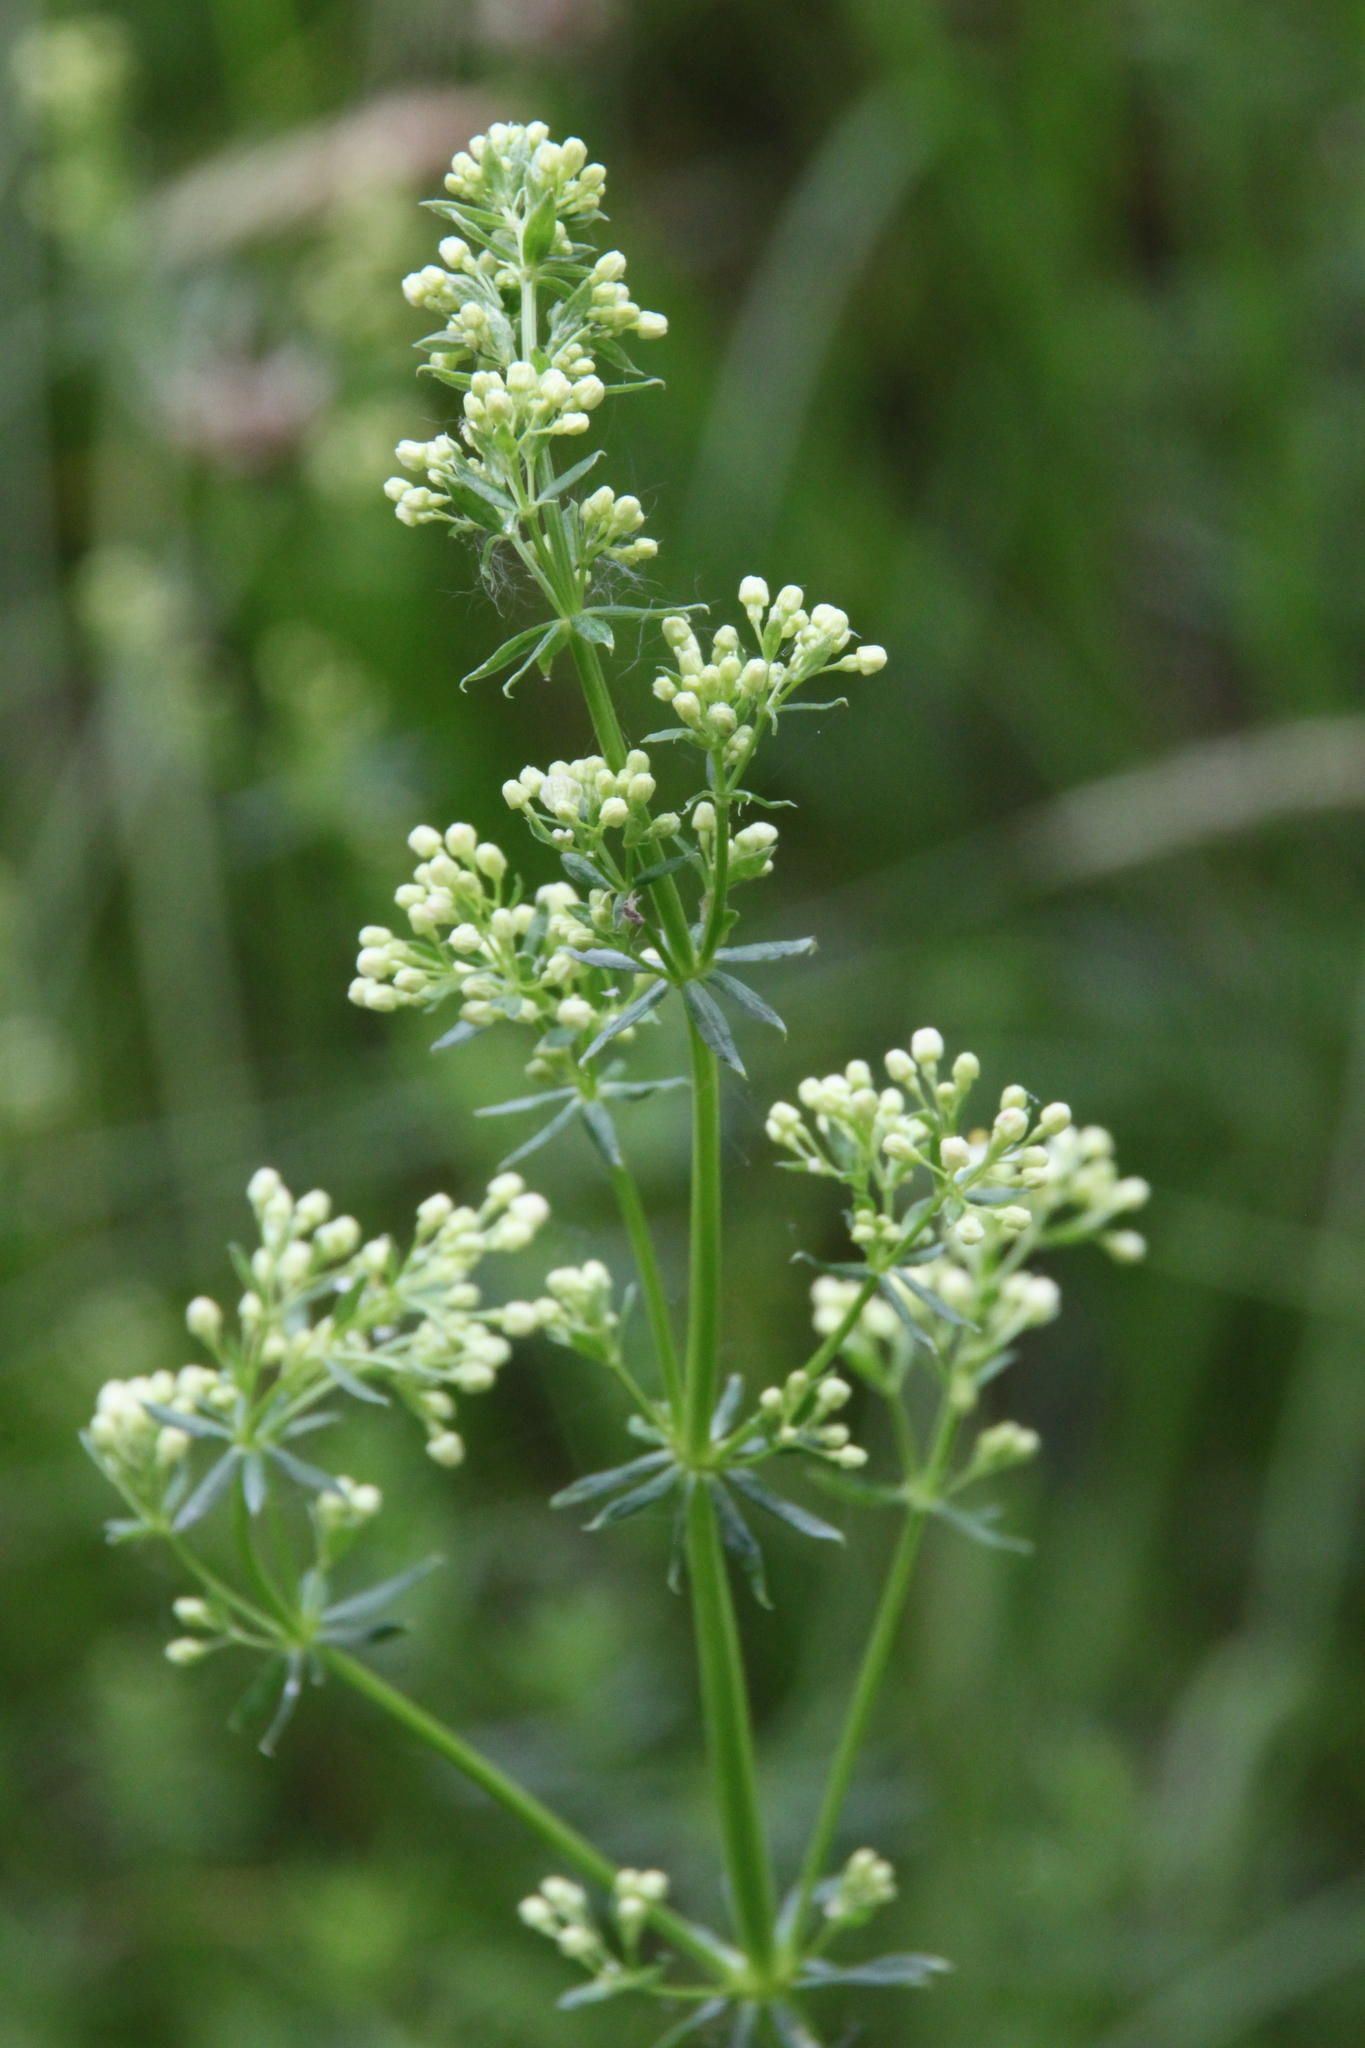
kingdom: Plantae
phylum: Tracheophyta
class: Magnoliopsida
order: Gentianales
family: Rubiaceae
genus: Galium
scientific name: Galium mollugo
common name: Hedge bedstraw
